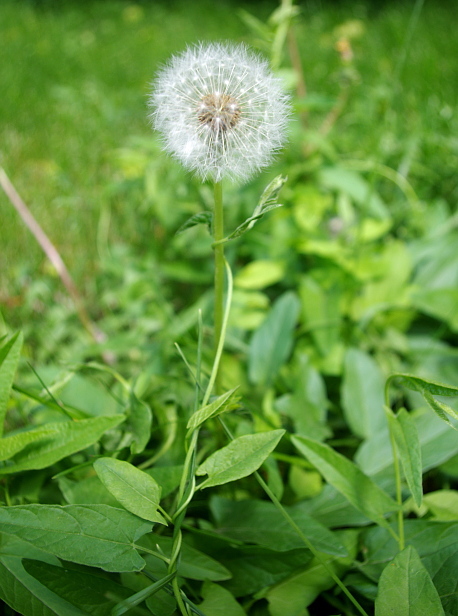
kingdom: Plantae
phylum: Tracheophyta
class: Magnoliopsida
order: Solanales
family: Convolvulaceae
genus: Convolvulus
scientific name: Convolvulus arvensis
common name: Field bindweed
